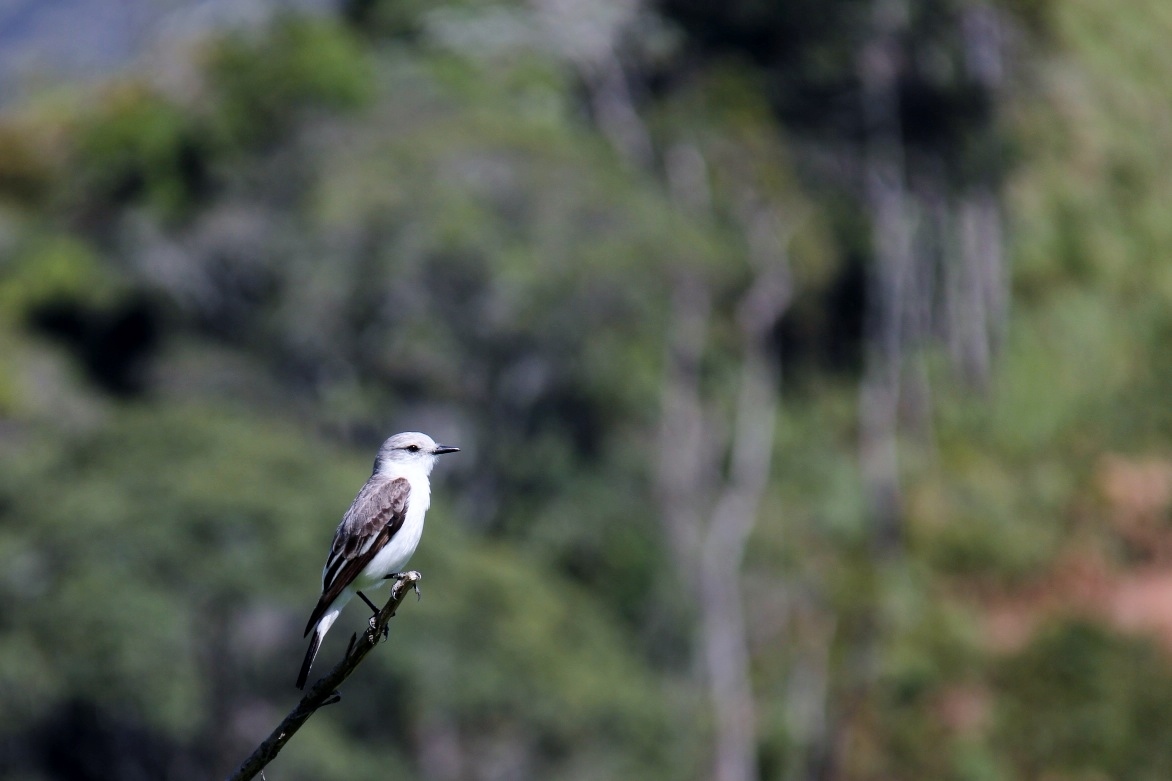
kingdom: Animalia
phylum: Chordata
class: Aves
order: Passeriformes
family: Tyrannidae
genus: Xolmis
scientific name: Xolmis velatus
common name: White-rumped monjita
